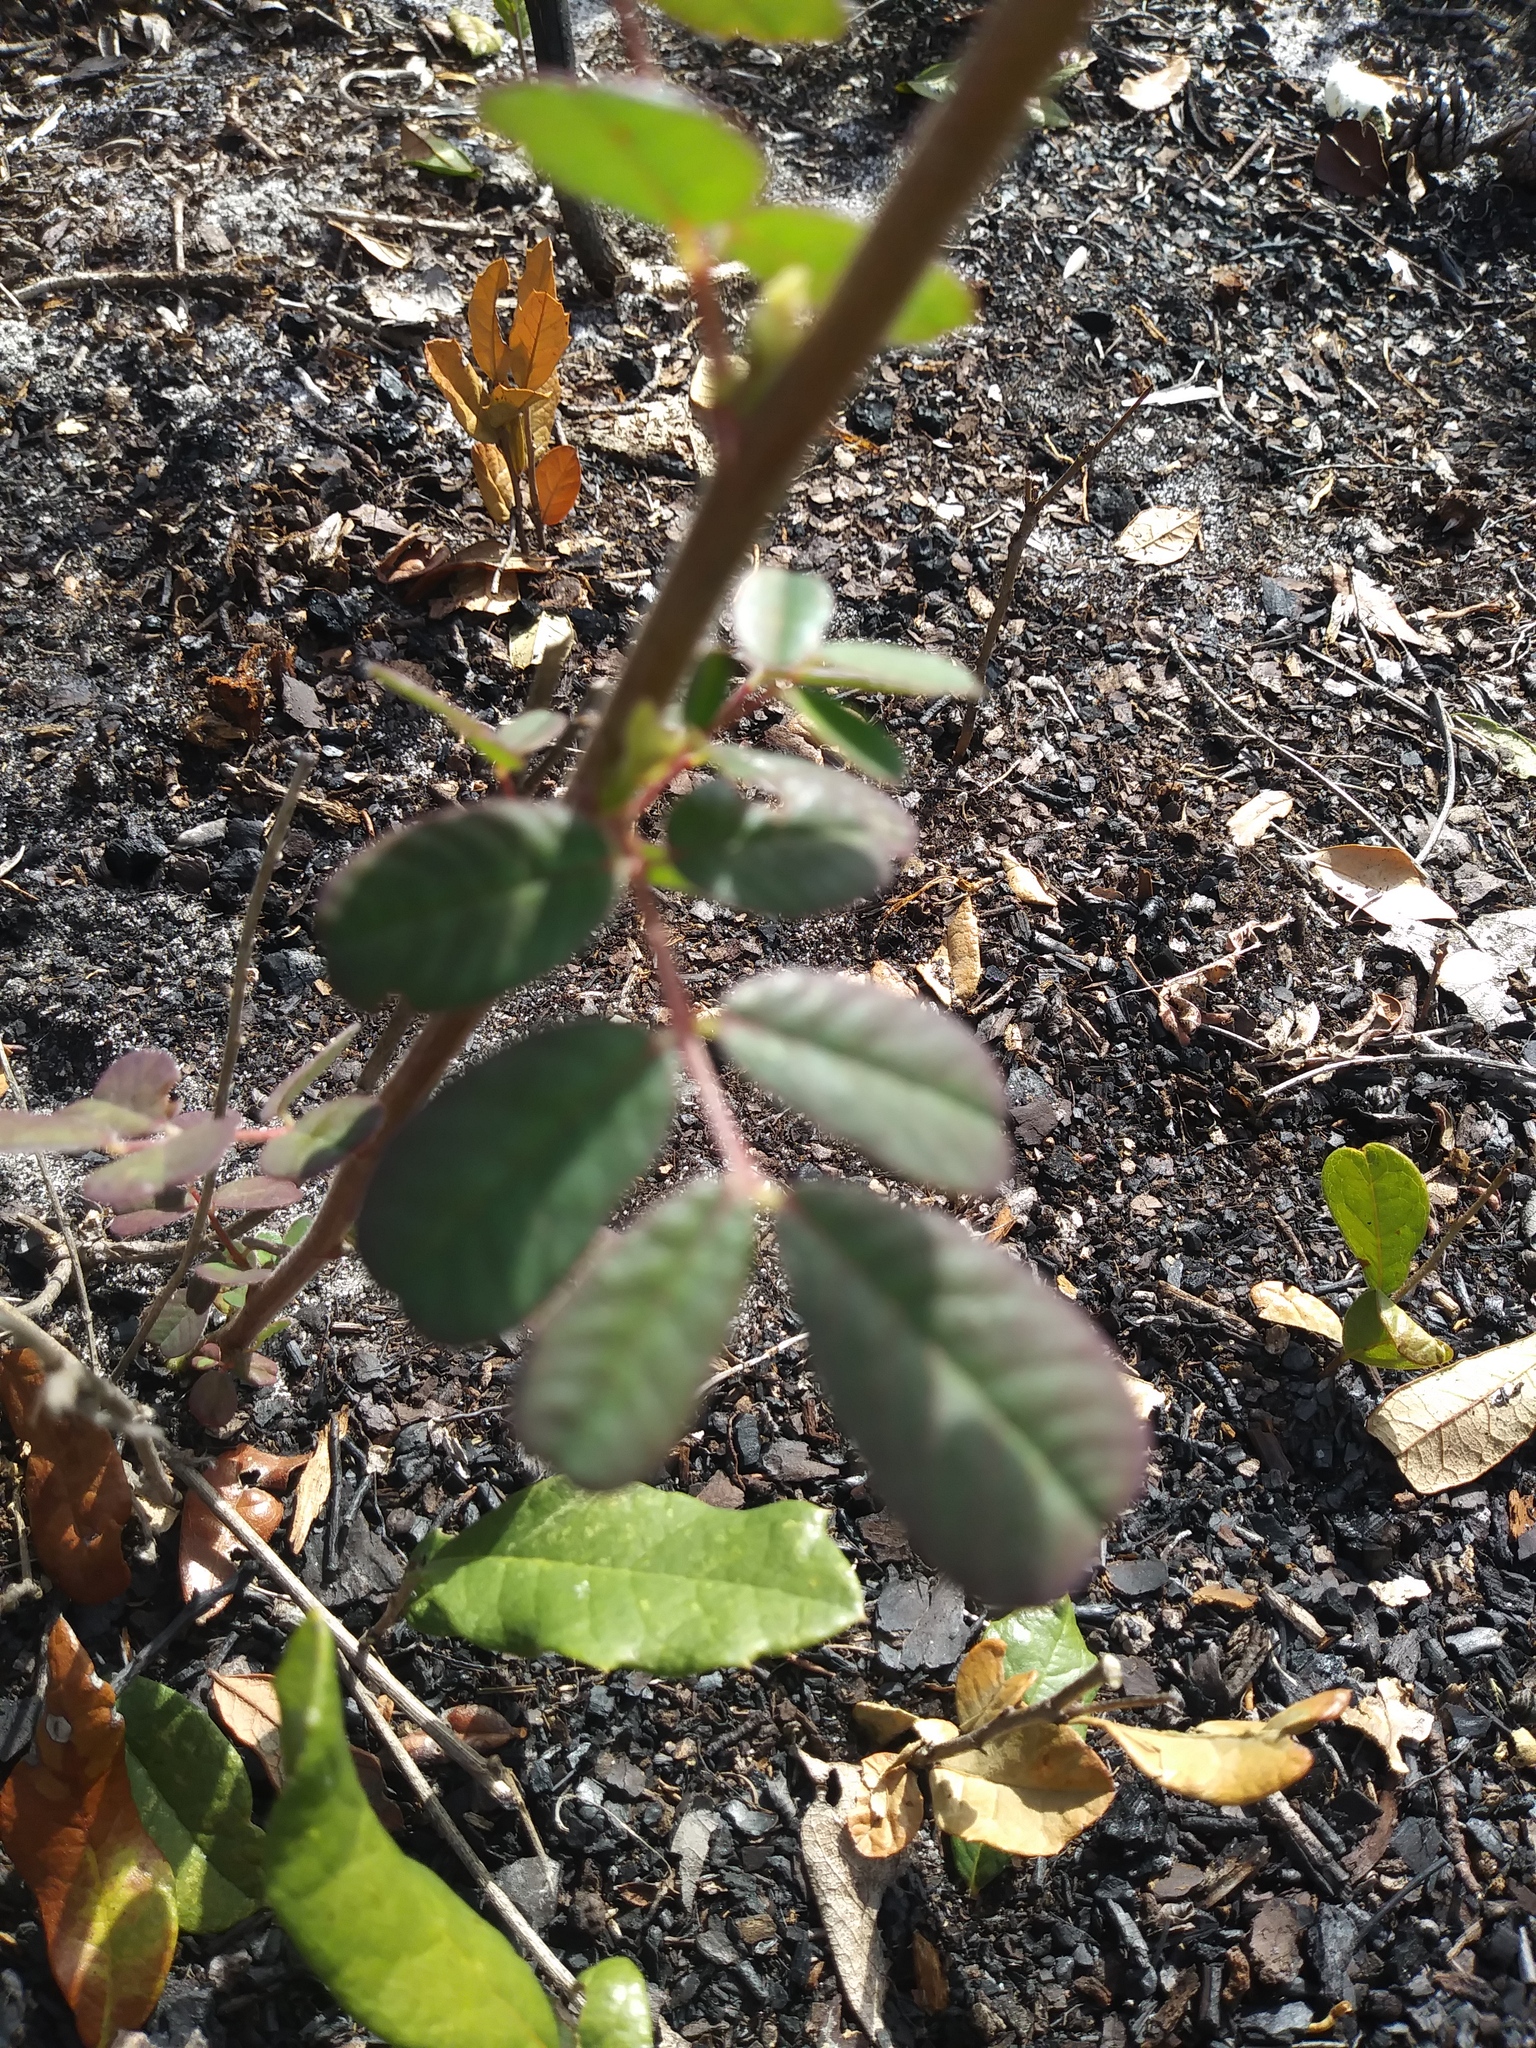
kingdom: Plantae
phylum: Tracheophyta
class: Magnoliopsida
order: Fabales
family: Fabaceae
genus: Chapmannia
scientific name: Chapmannia floridana
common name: Alicia
